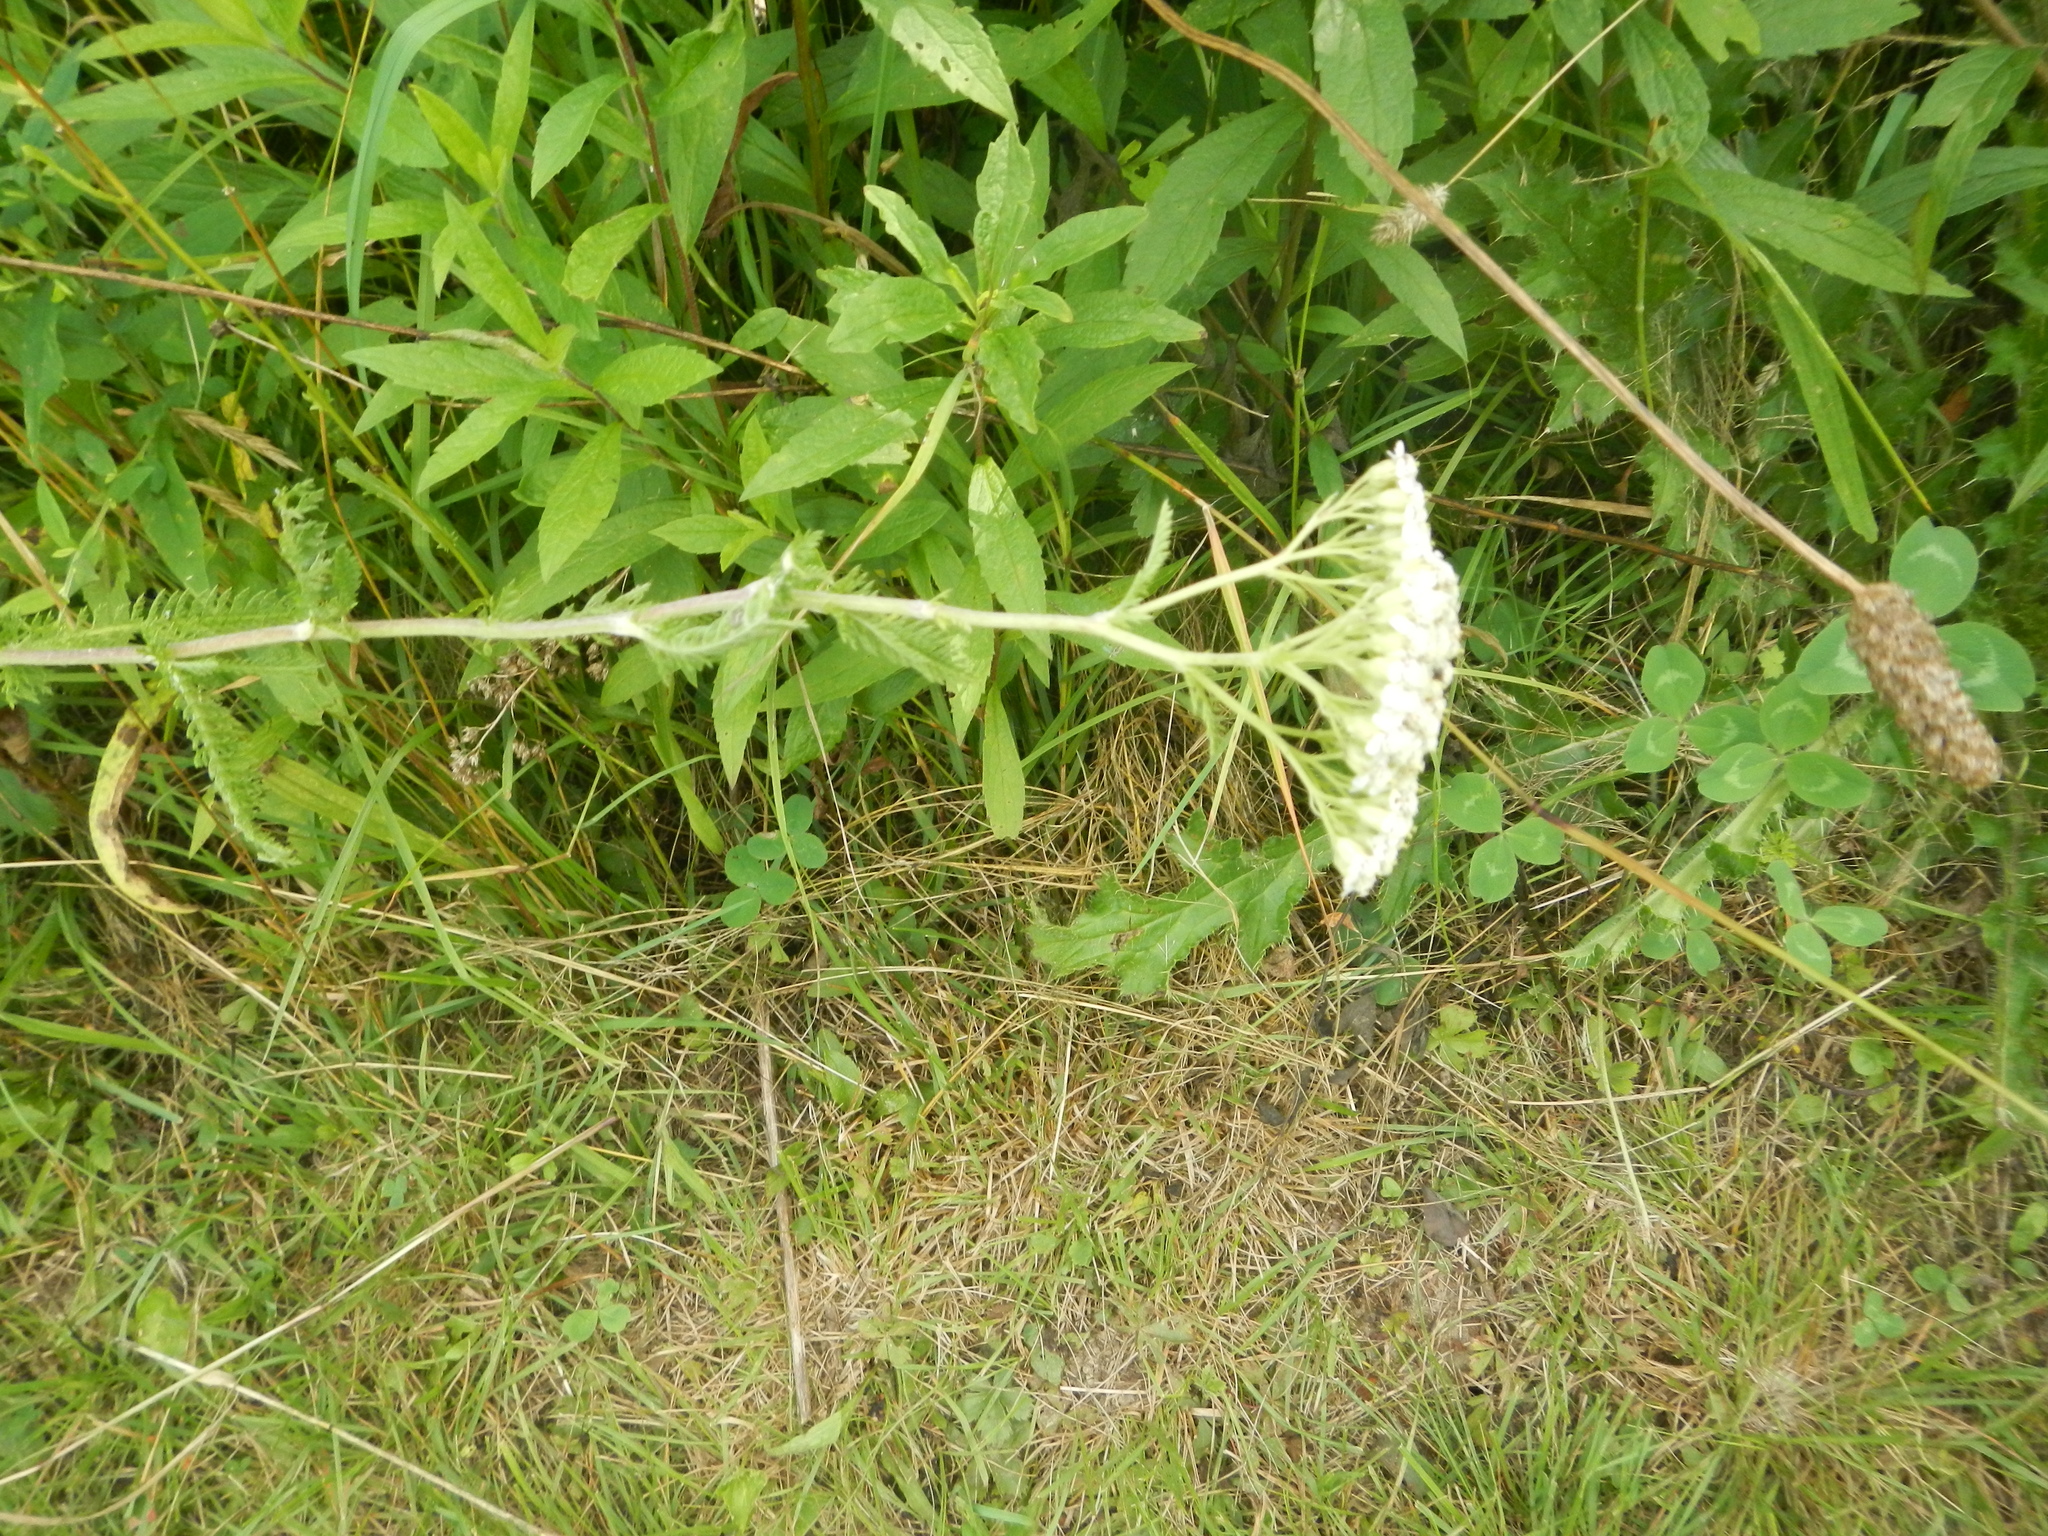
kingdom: Plantae
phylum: Tracheophyta
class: Magnoliopsida
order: Asterales
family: Asteraceae
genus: Achillea
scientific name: Achillea millefolium
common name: Yarrow
